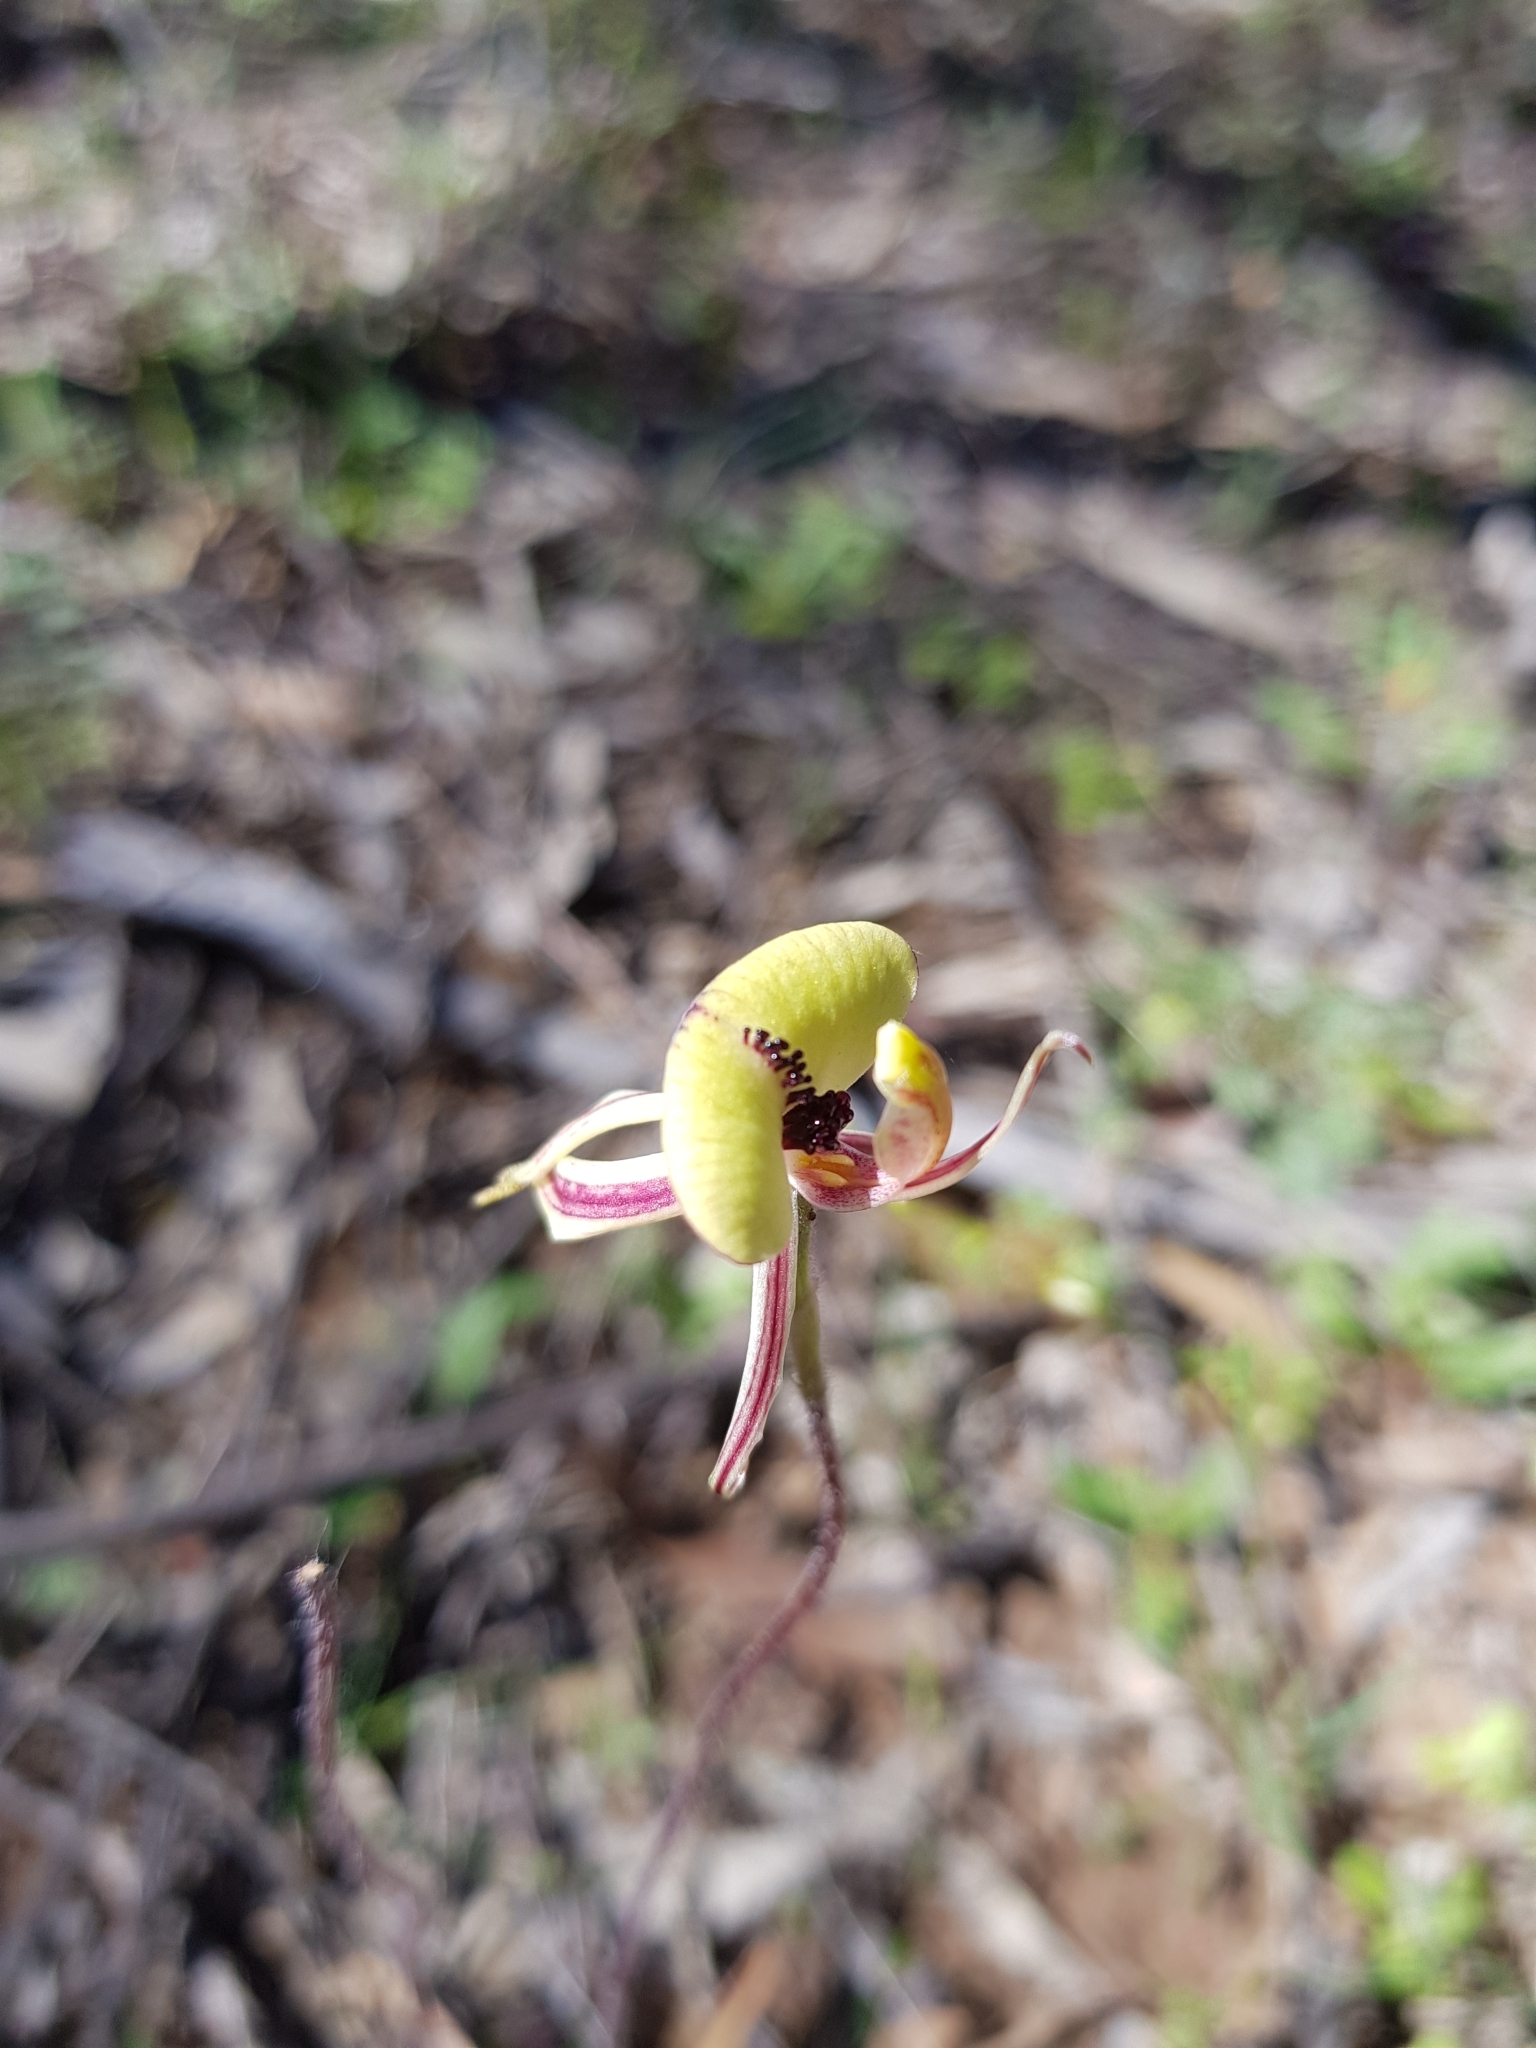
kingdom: Plantae
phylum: Tracheophyta
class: Liliopsida
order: Asparagales
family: Orchidaceae
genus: Caladenia
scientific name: Caladenia roei
